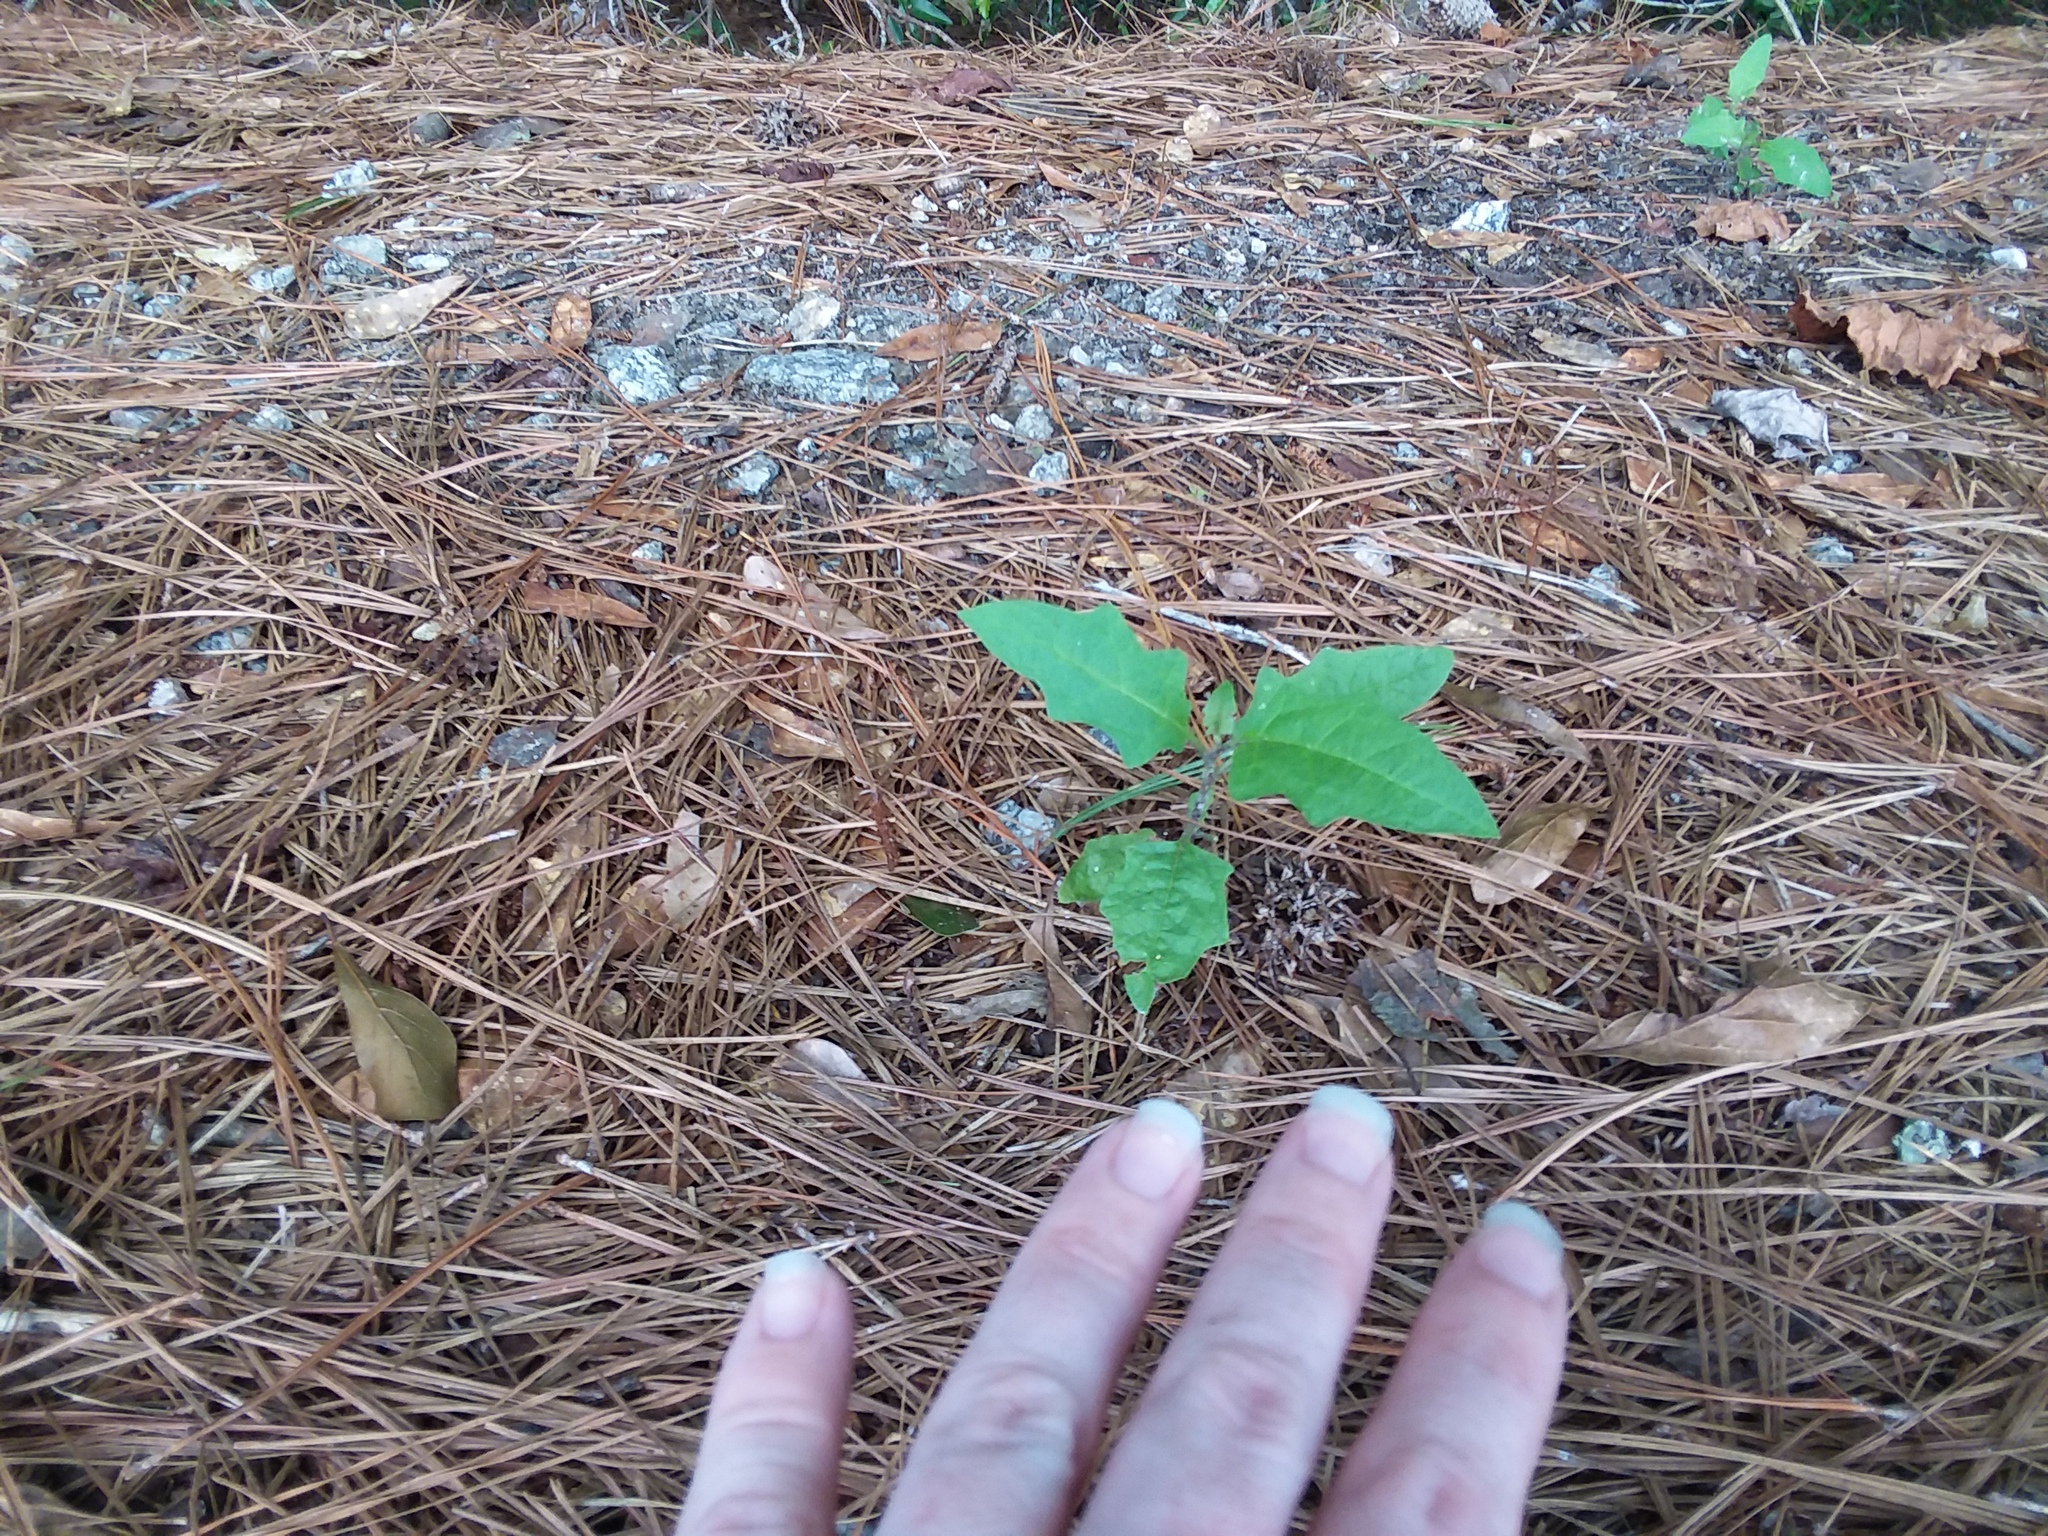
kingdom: Plantae
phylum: Tracheophyta
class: Magnoliopsida
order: Solanales
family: Solanaceae
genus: Solanum
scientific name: Solanum carolinense
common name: Horse-nettle
